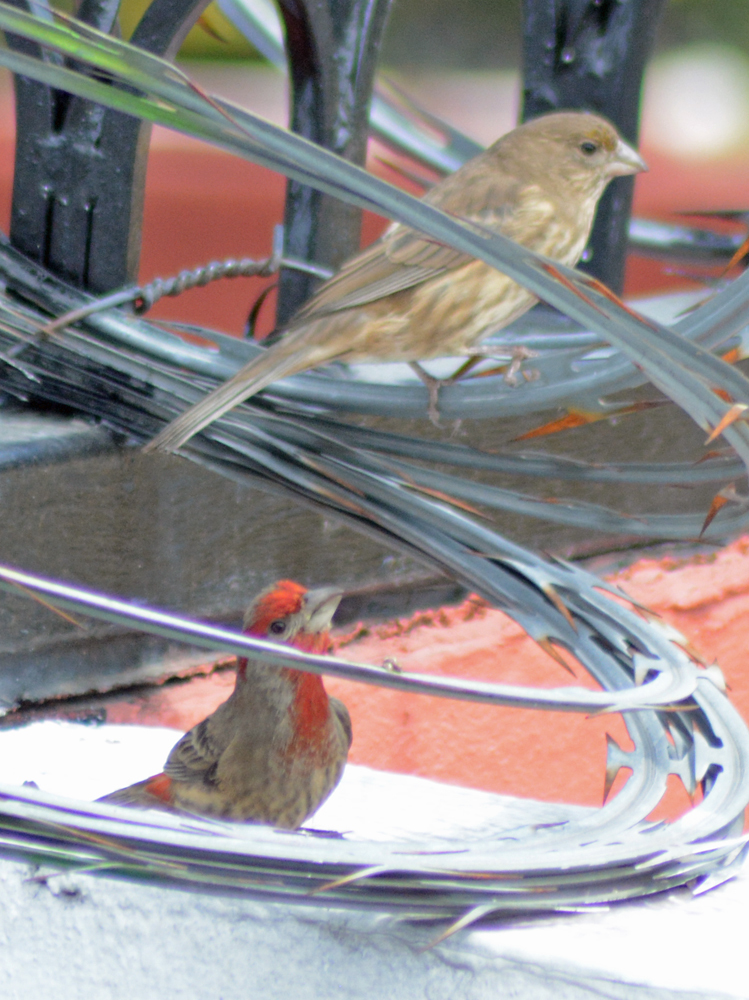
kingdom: Animalia
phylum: Chordata
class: Aves
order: Passeriformes
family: Fringillidae
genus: Haemorhous
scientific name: Haemorhous mexicanus
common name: House finch
